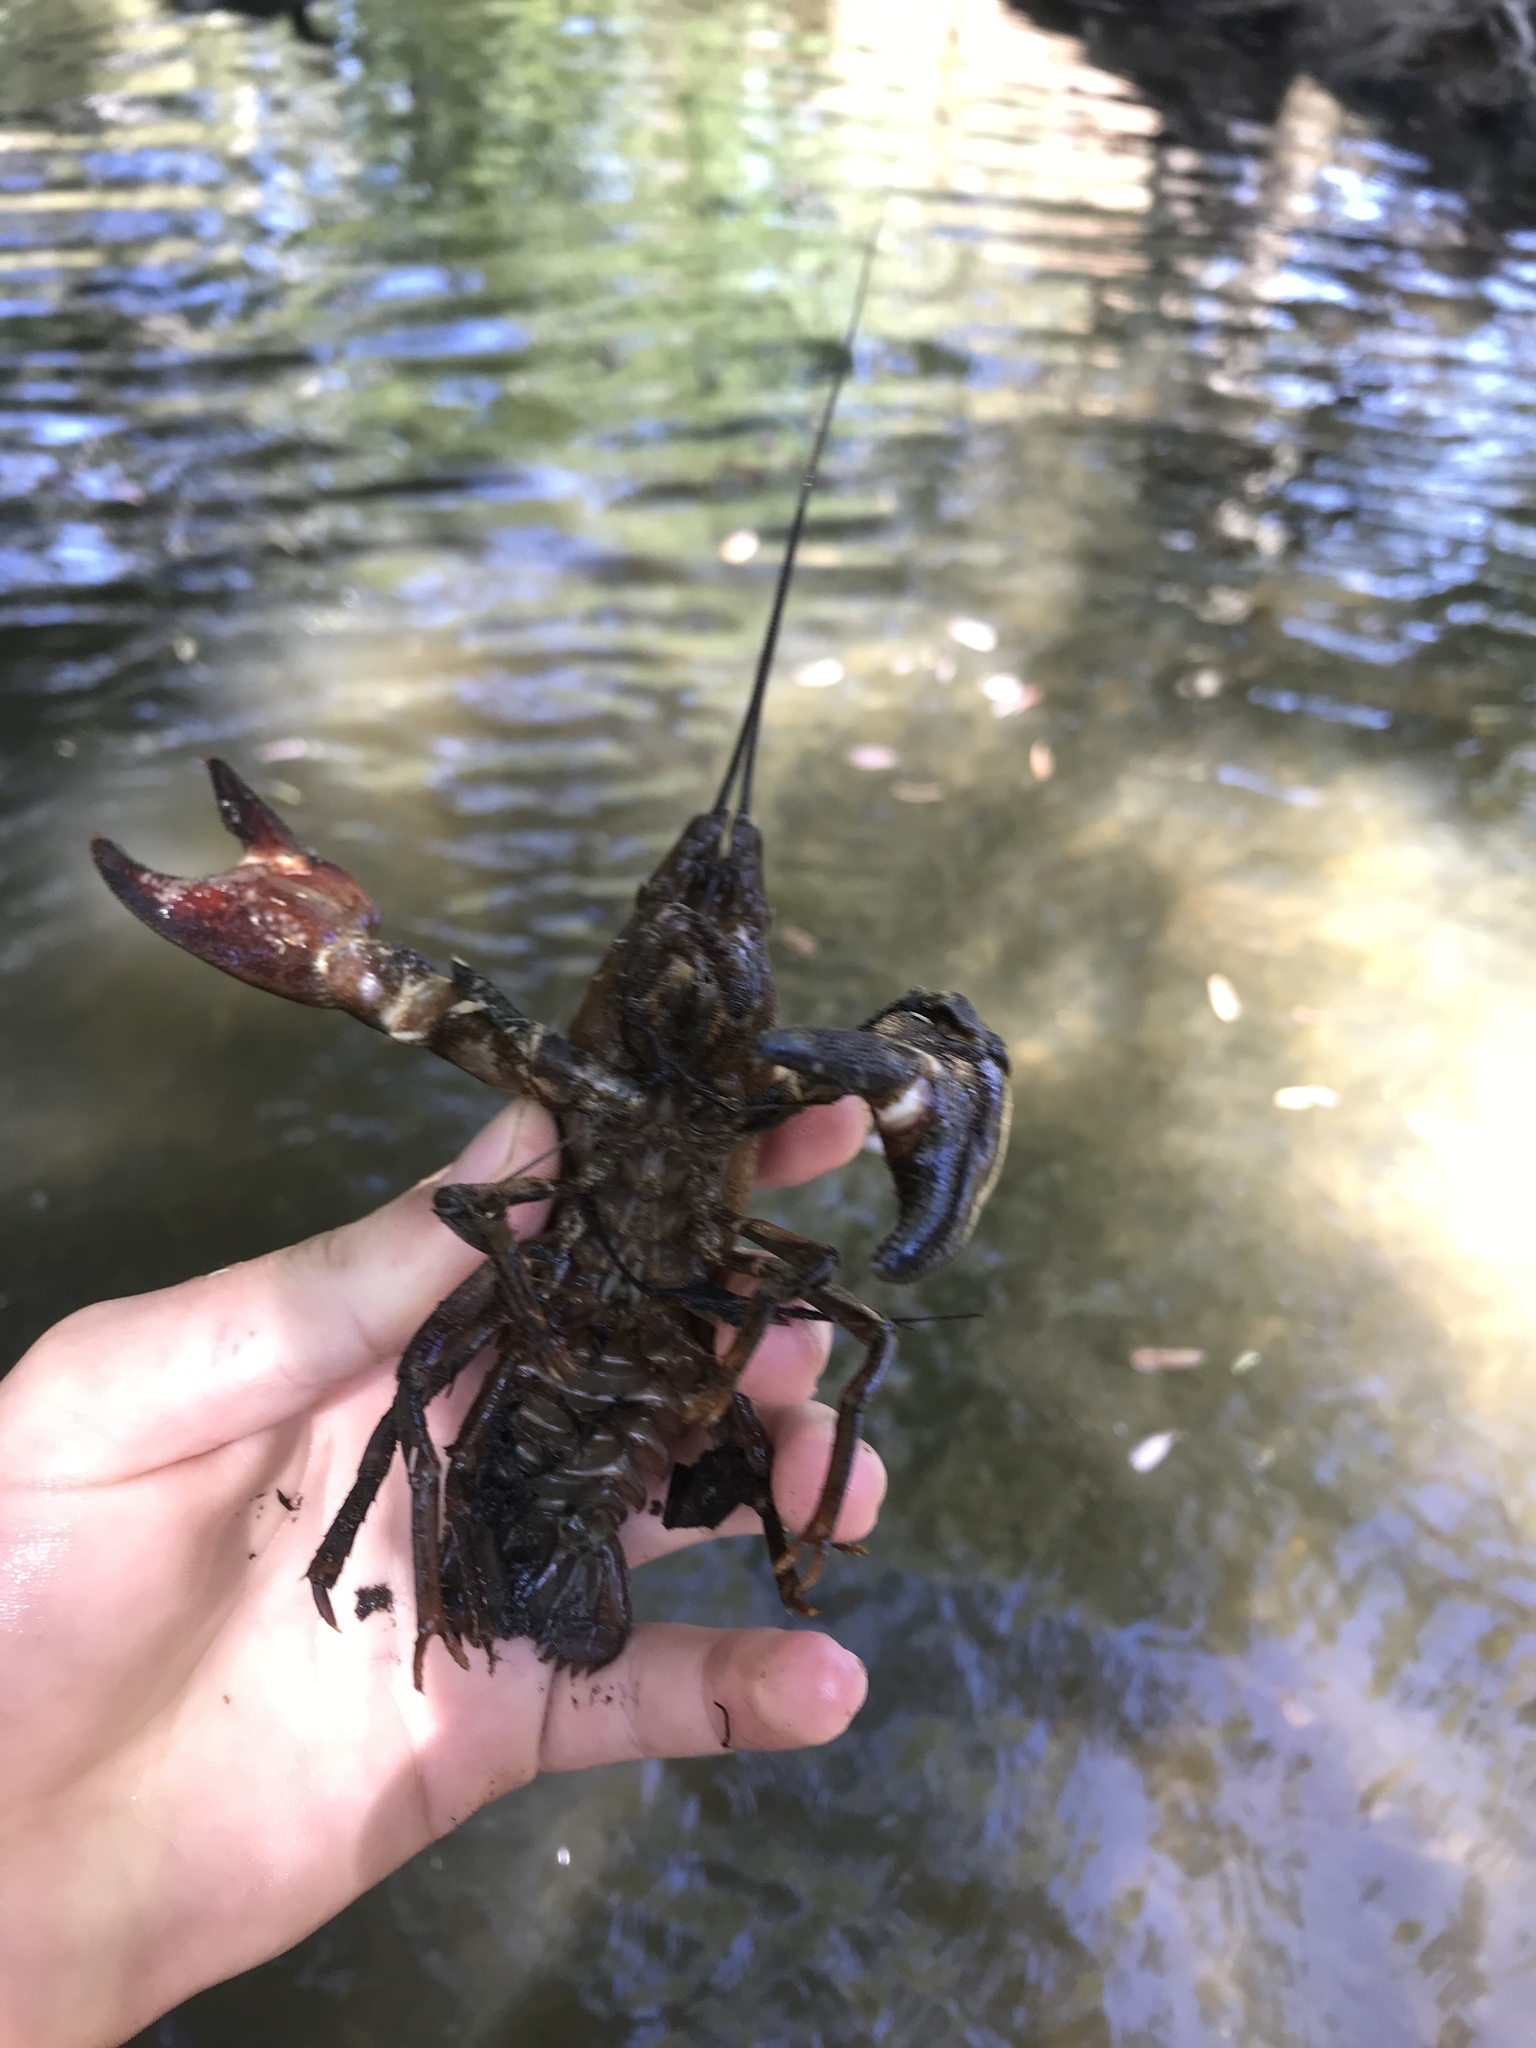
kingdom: Animalia
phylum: Arthropoda
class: Malacostraca
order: Decapoda
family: Astacidae
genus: Pacifastacus
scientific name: Pacifastacus leniusculus
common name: Signal crayfish
